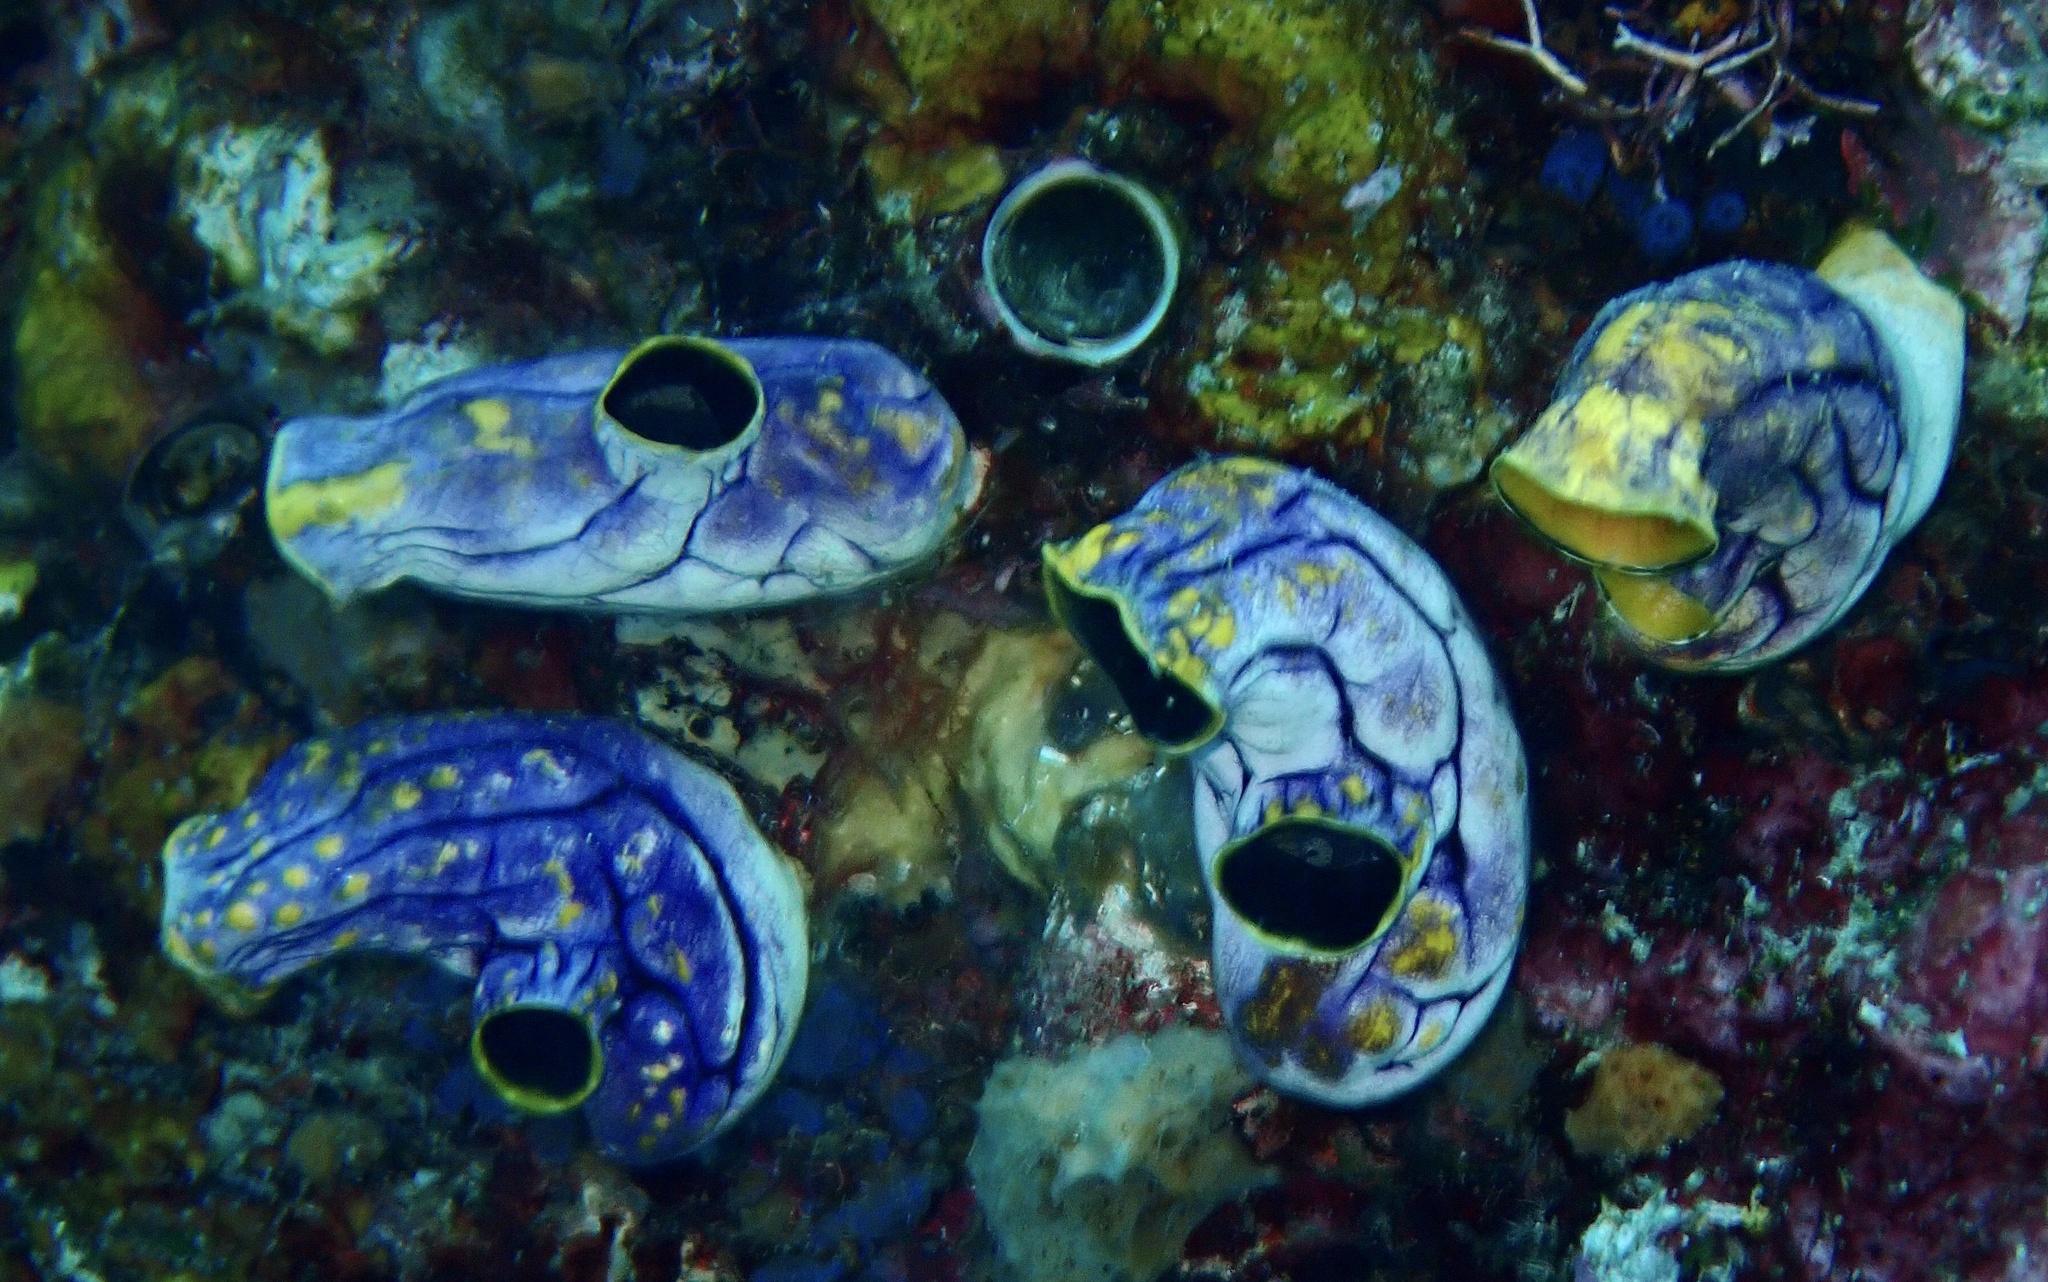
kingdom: Animalia
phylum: Chordata
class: Ascidiacea
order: Stolidobranchia
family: Styelidae
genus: Polycarpa
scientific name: Polycarpa aurata
